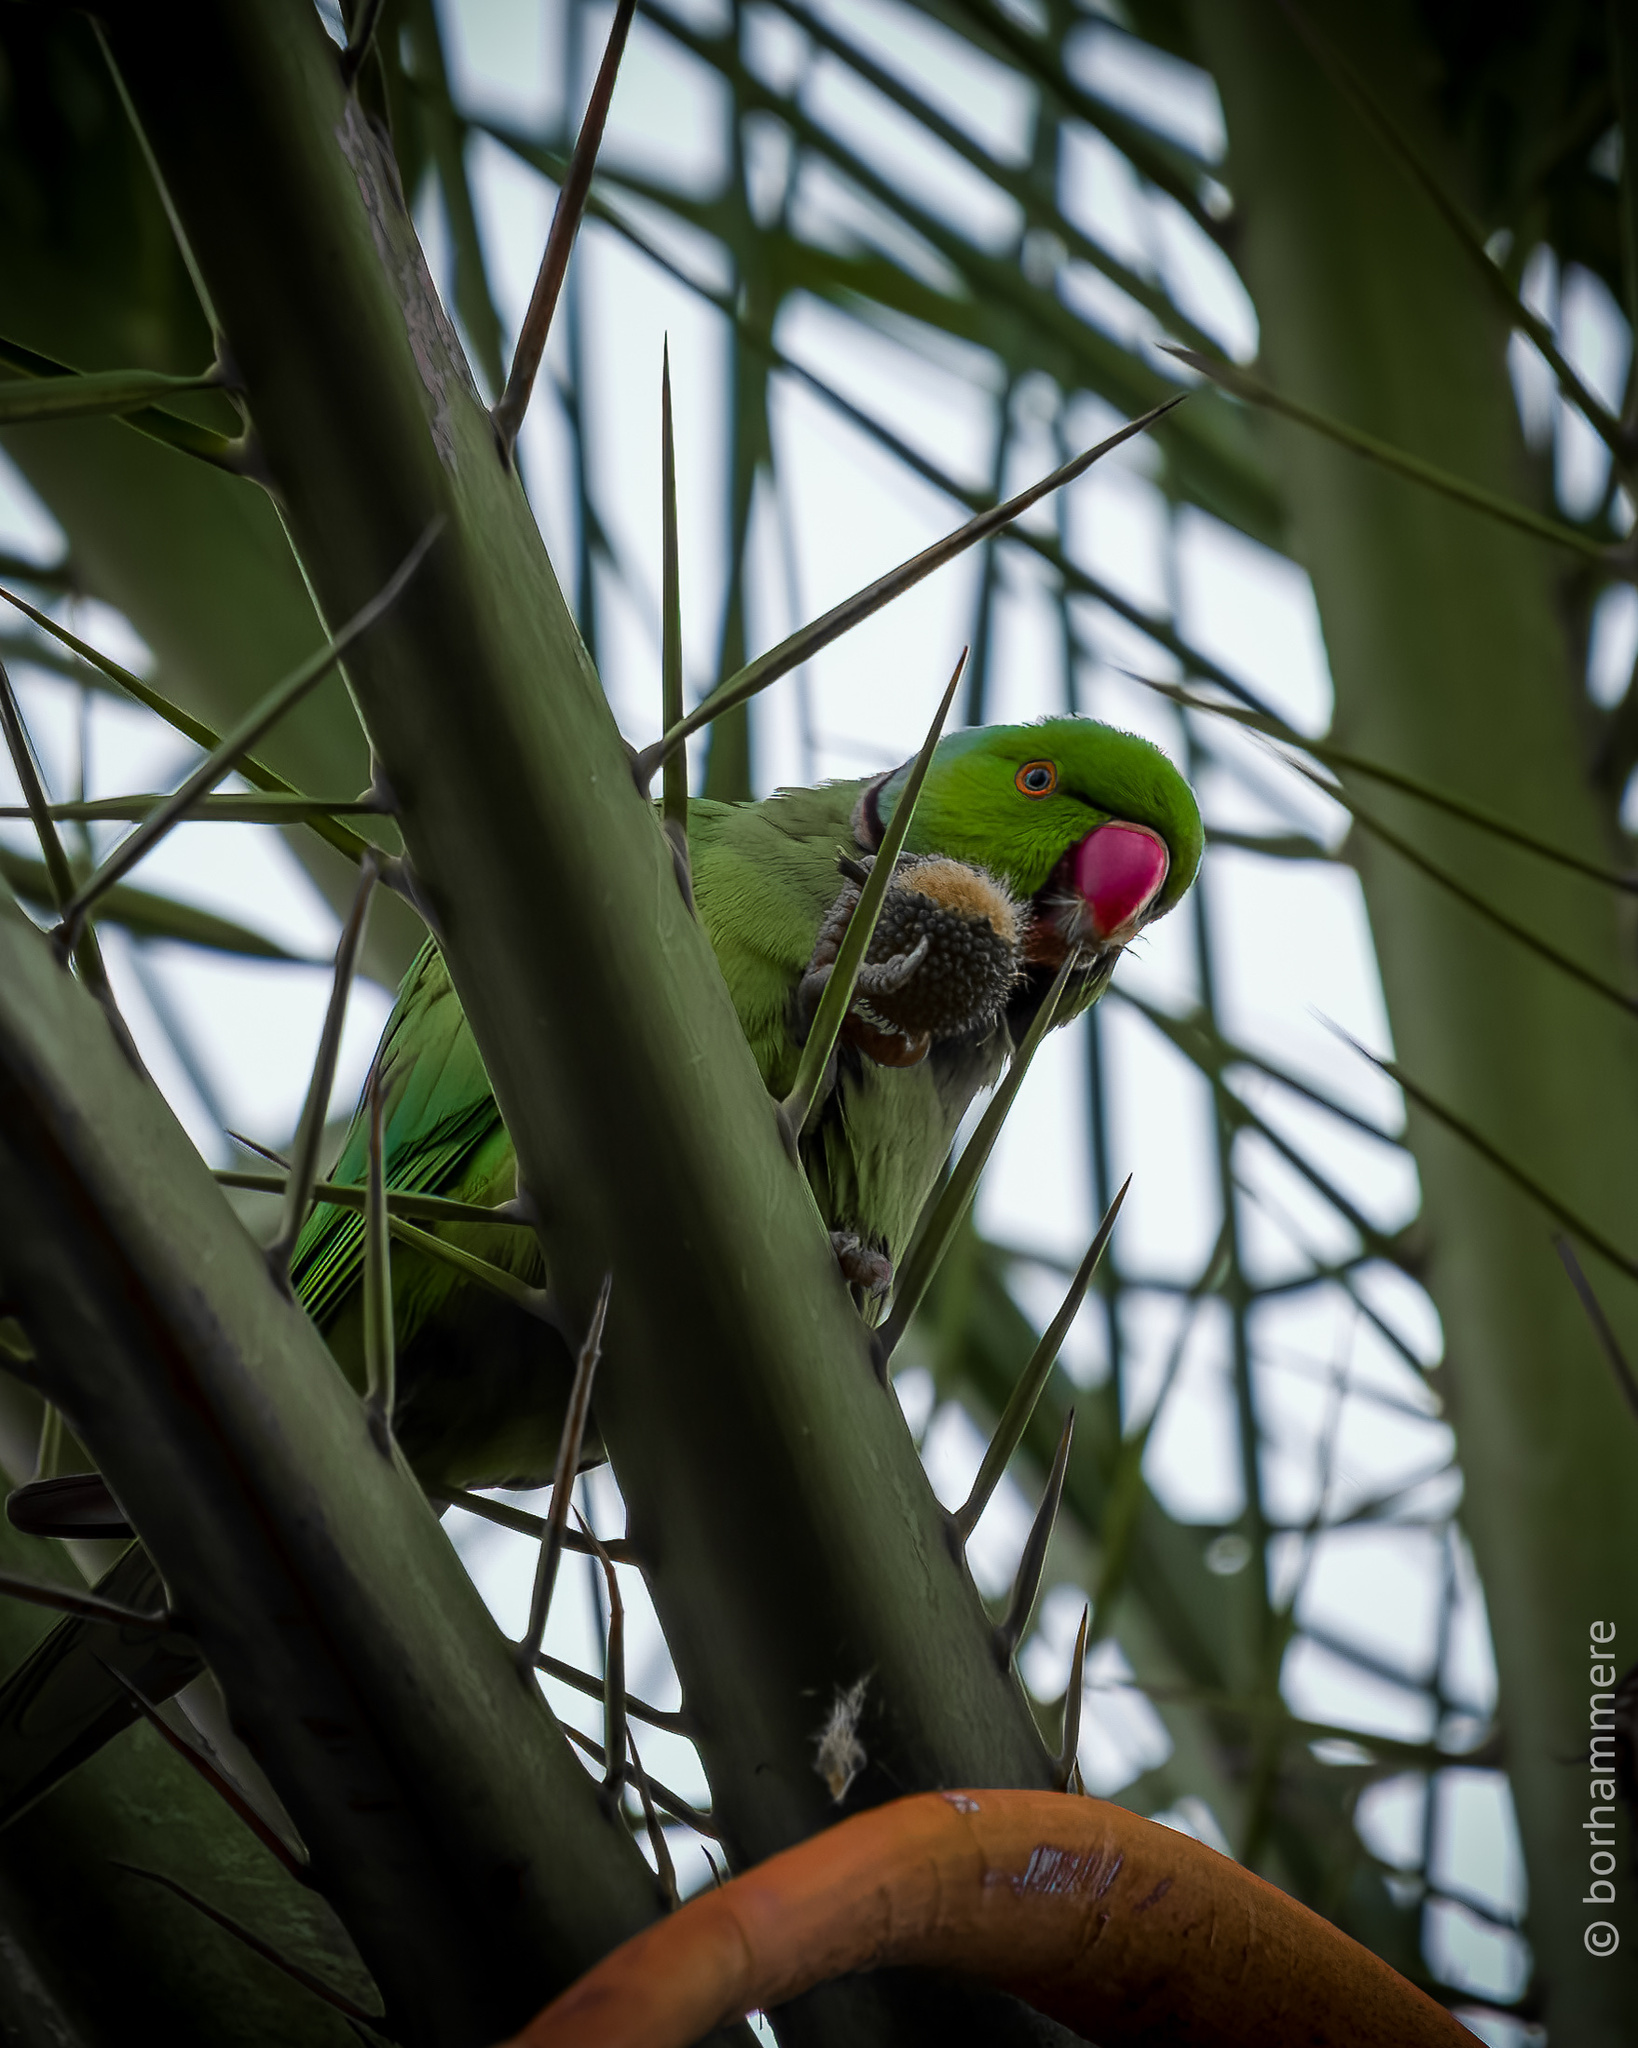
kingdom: Animalia
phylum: Chordata
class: Aves
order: Psittaciformes
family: Psittacidae
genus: Psittacula
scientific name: Psittacula krameri
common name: Rose-ringed parakeet
